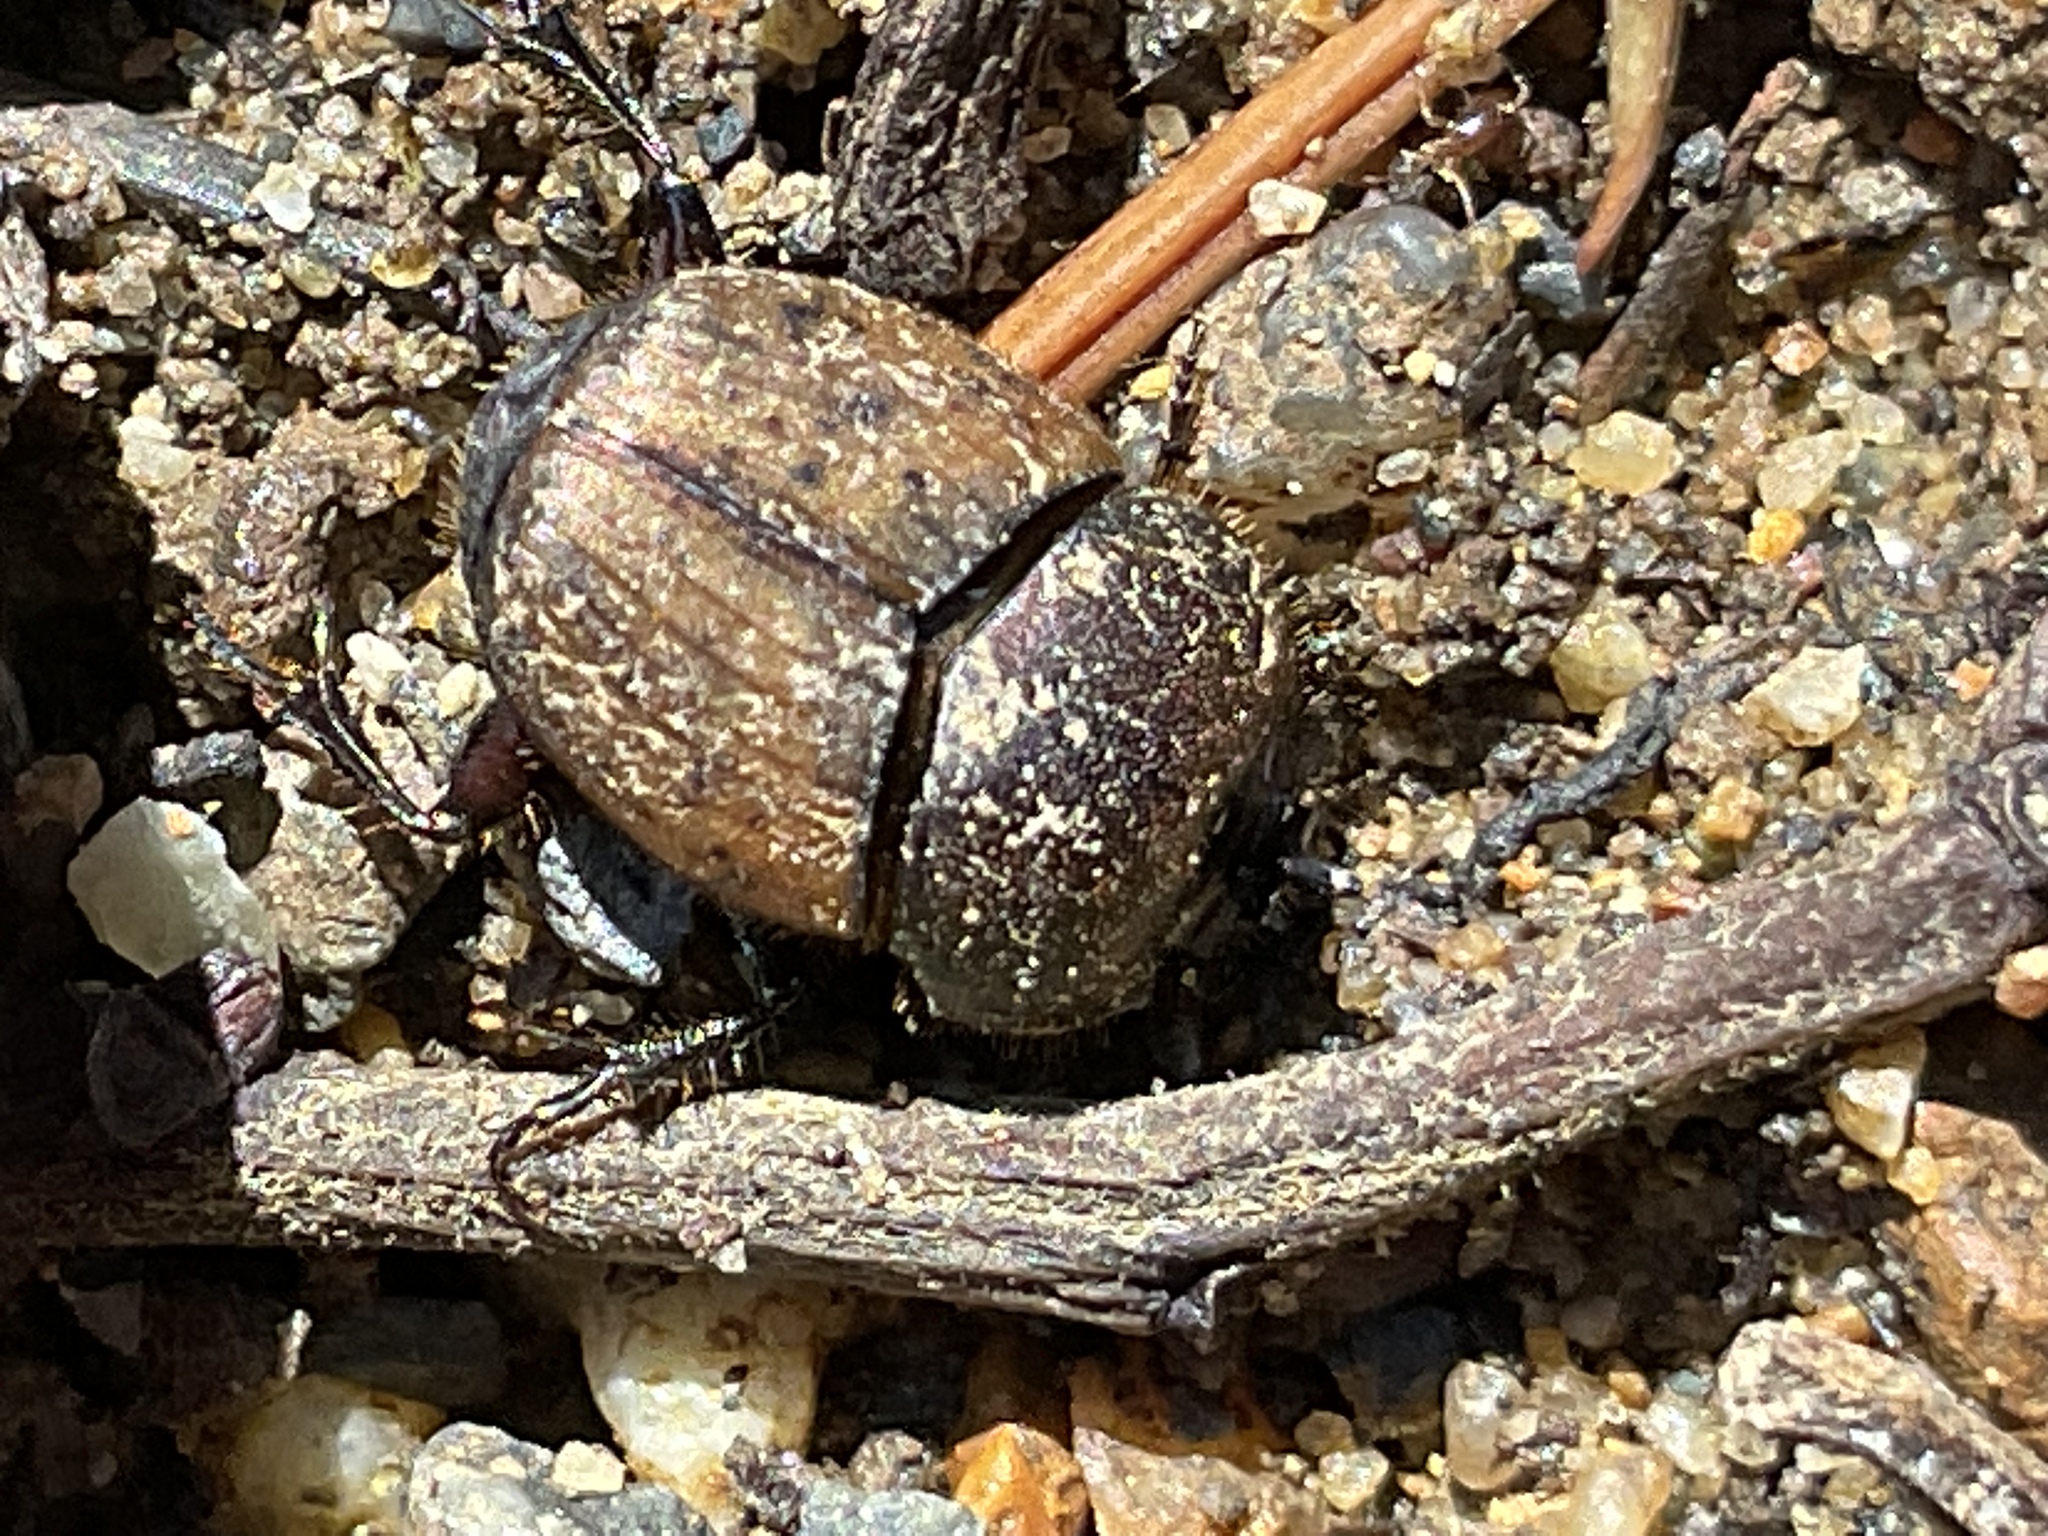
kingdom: Animalia
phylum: Arthropoda
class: Insecta
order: Coleoptera
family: Scarabaeidae
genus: Onthophagus
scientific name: Onthophagus coenobita
